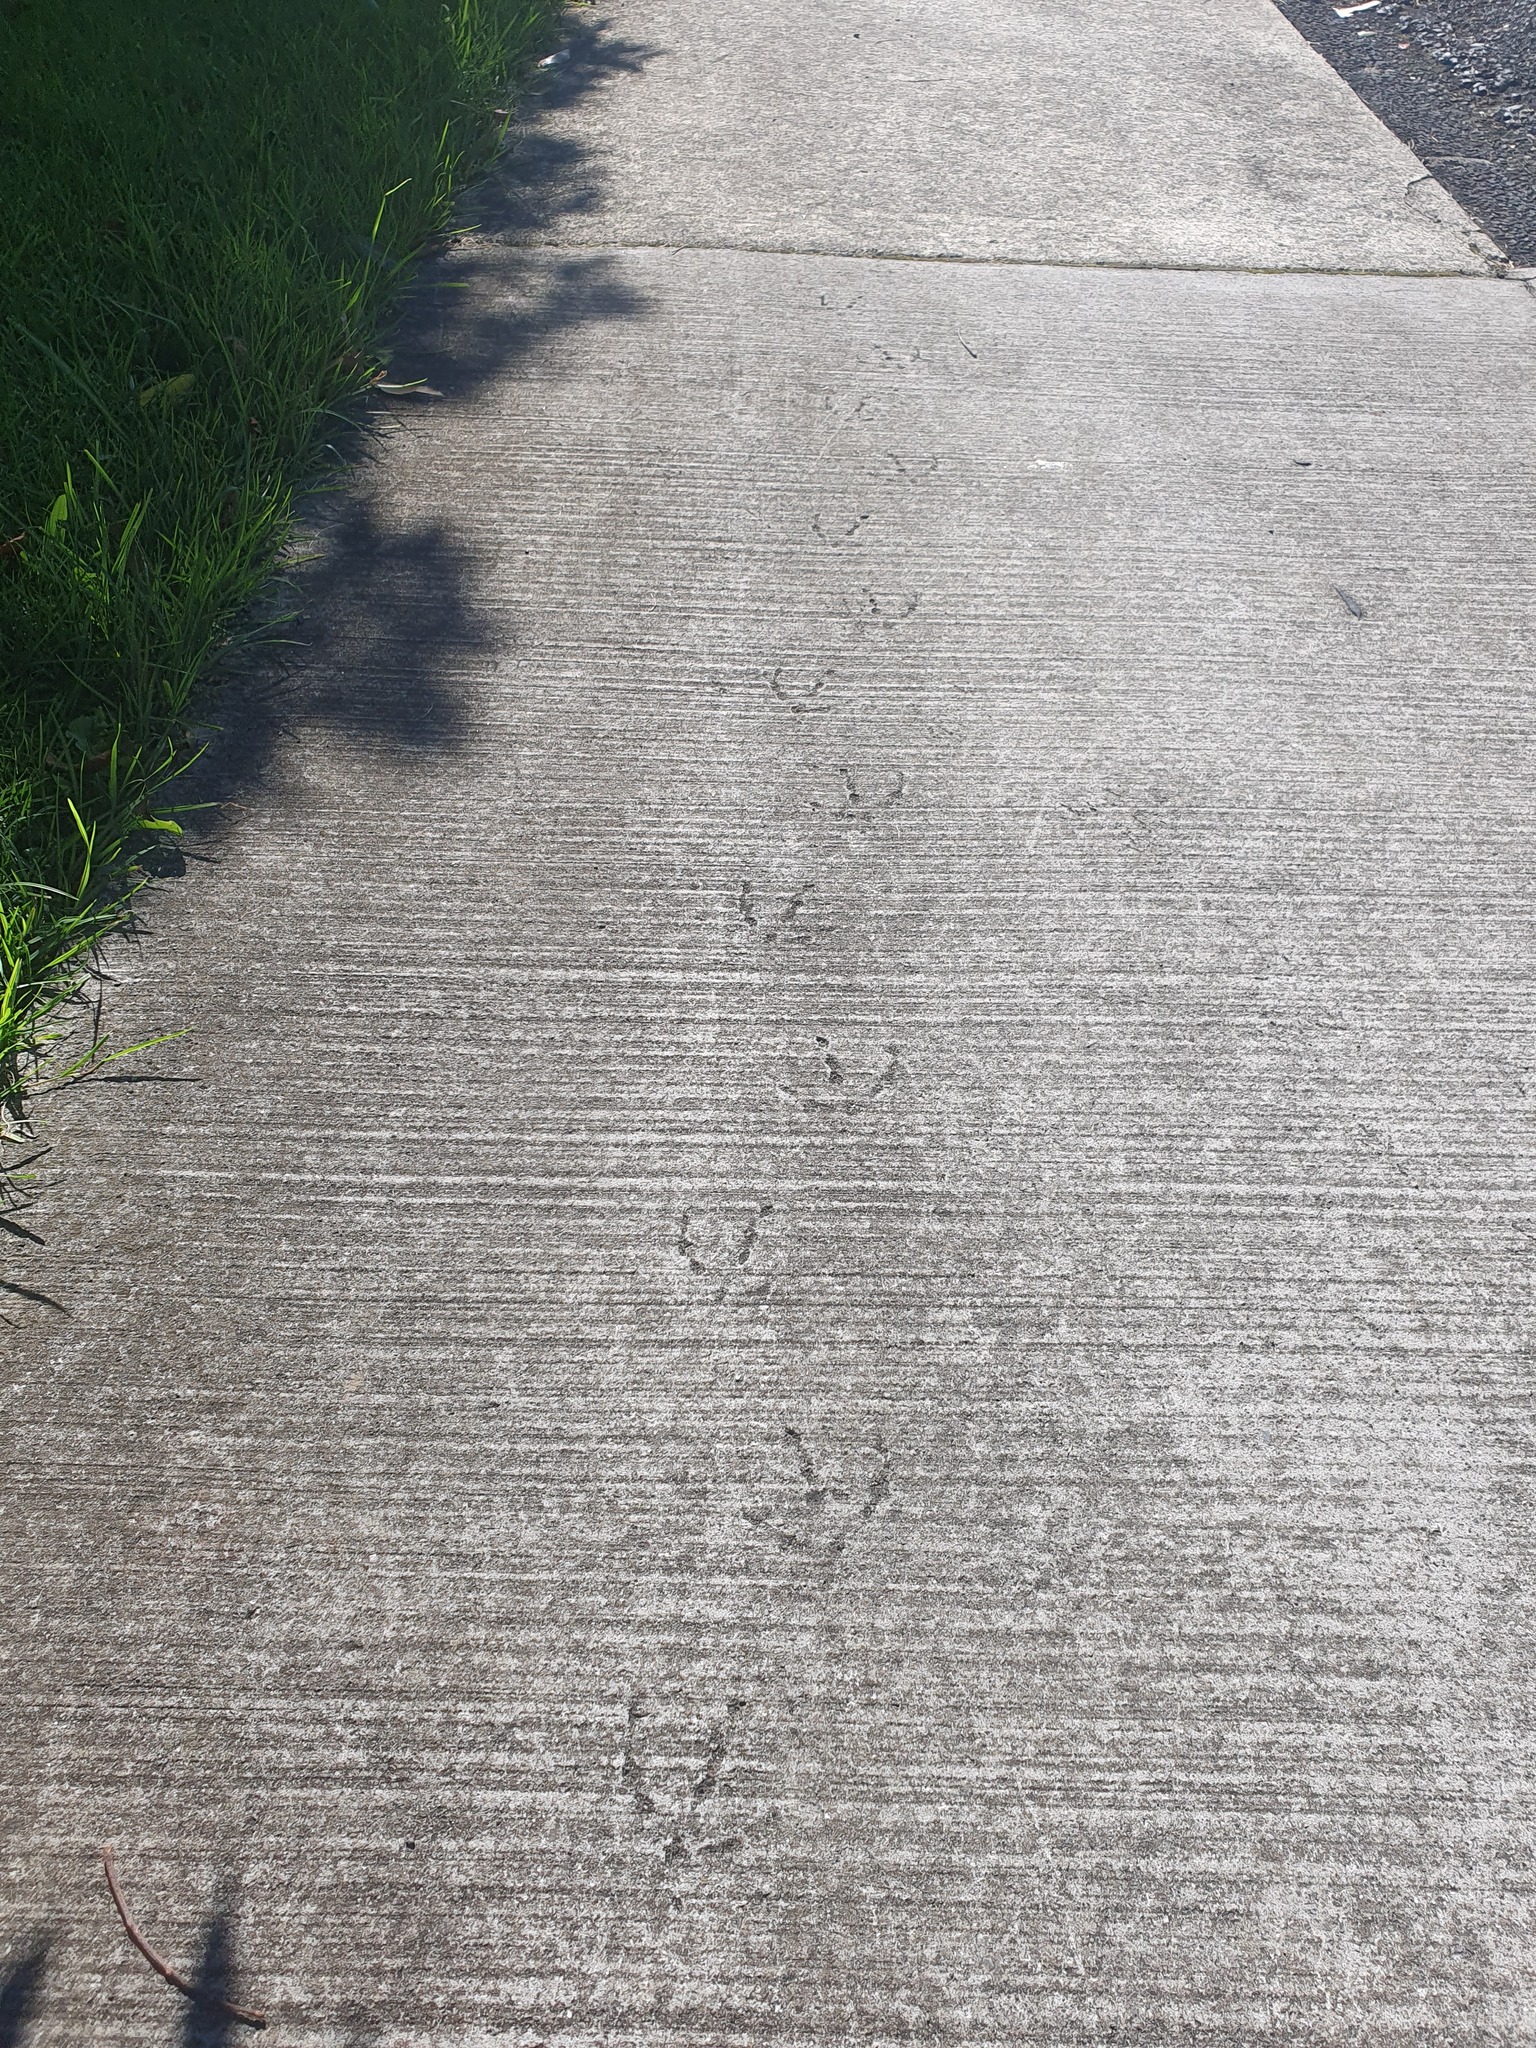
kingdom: Animalia
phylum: Chordata
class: Aves
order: Gruiformes
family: Rallidae
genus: Porphyrio
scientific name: Porphyrio melanotus
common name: Australasian swamphen
